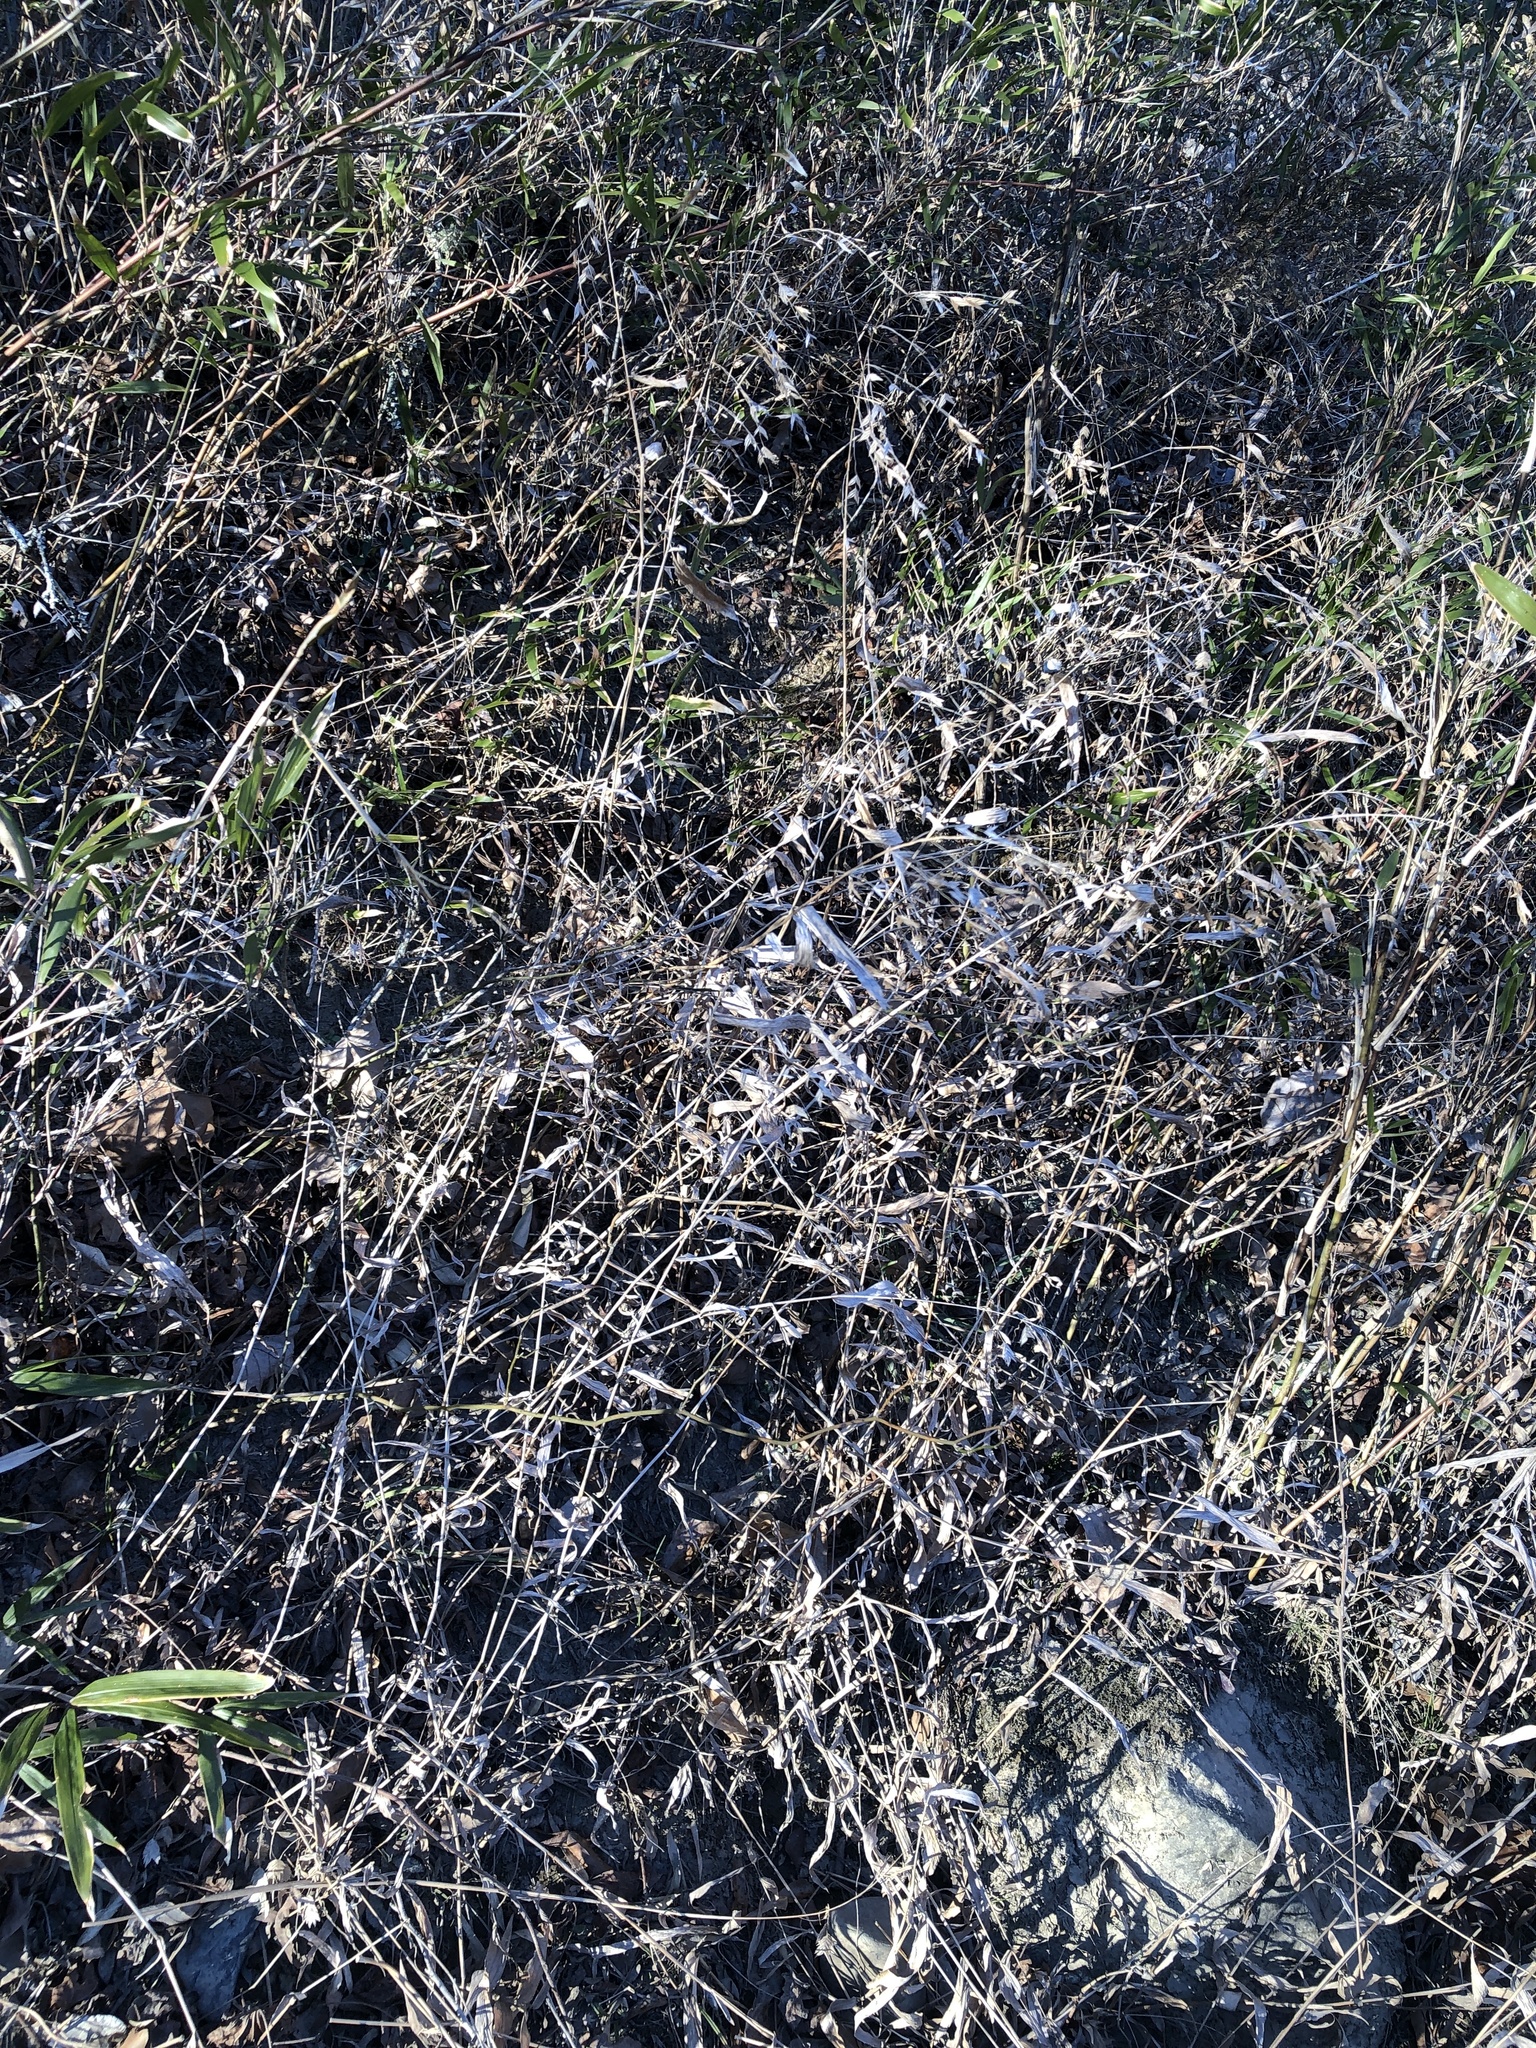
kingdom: Plantae
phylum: Tracheophyta
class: Liliopsida
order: Poales
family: Poaceae
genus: Chasmanthium
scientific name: Chasmanthium latifolium
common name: Broad-leaved chasmanthium
